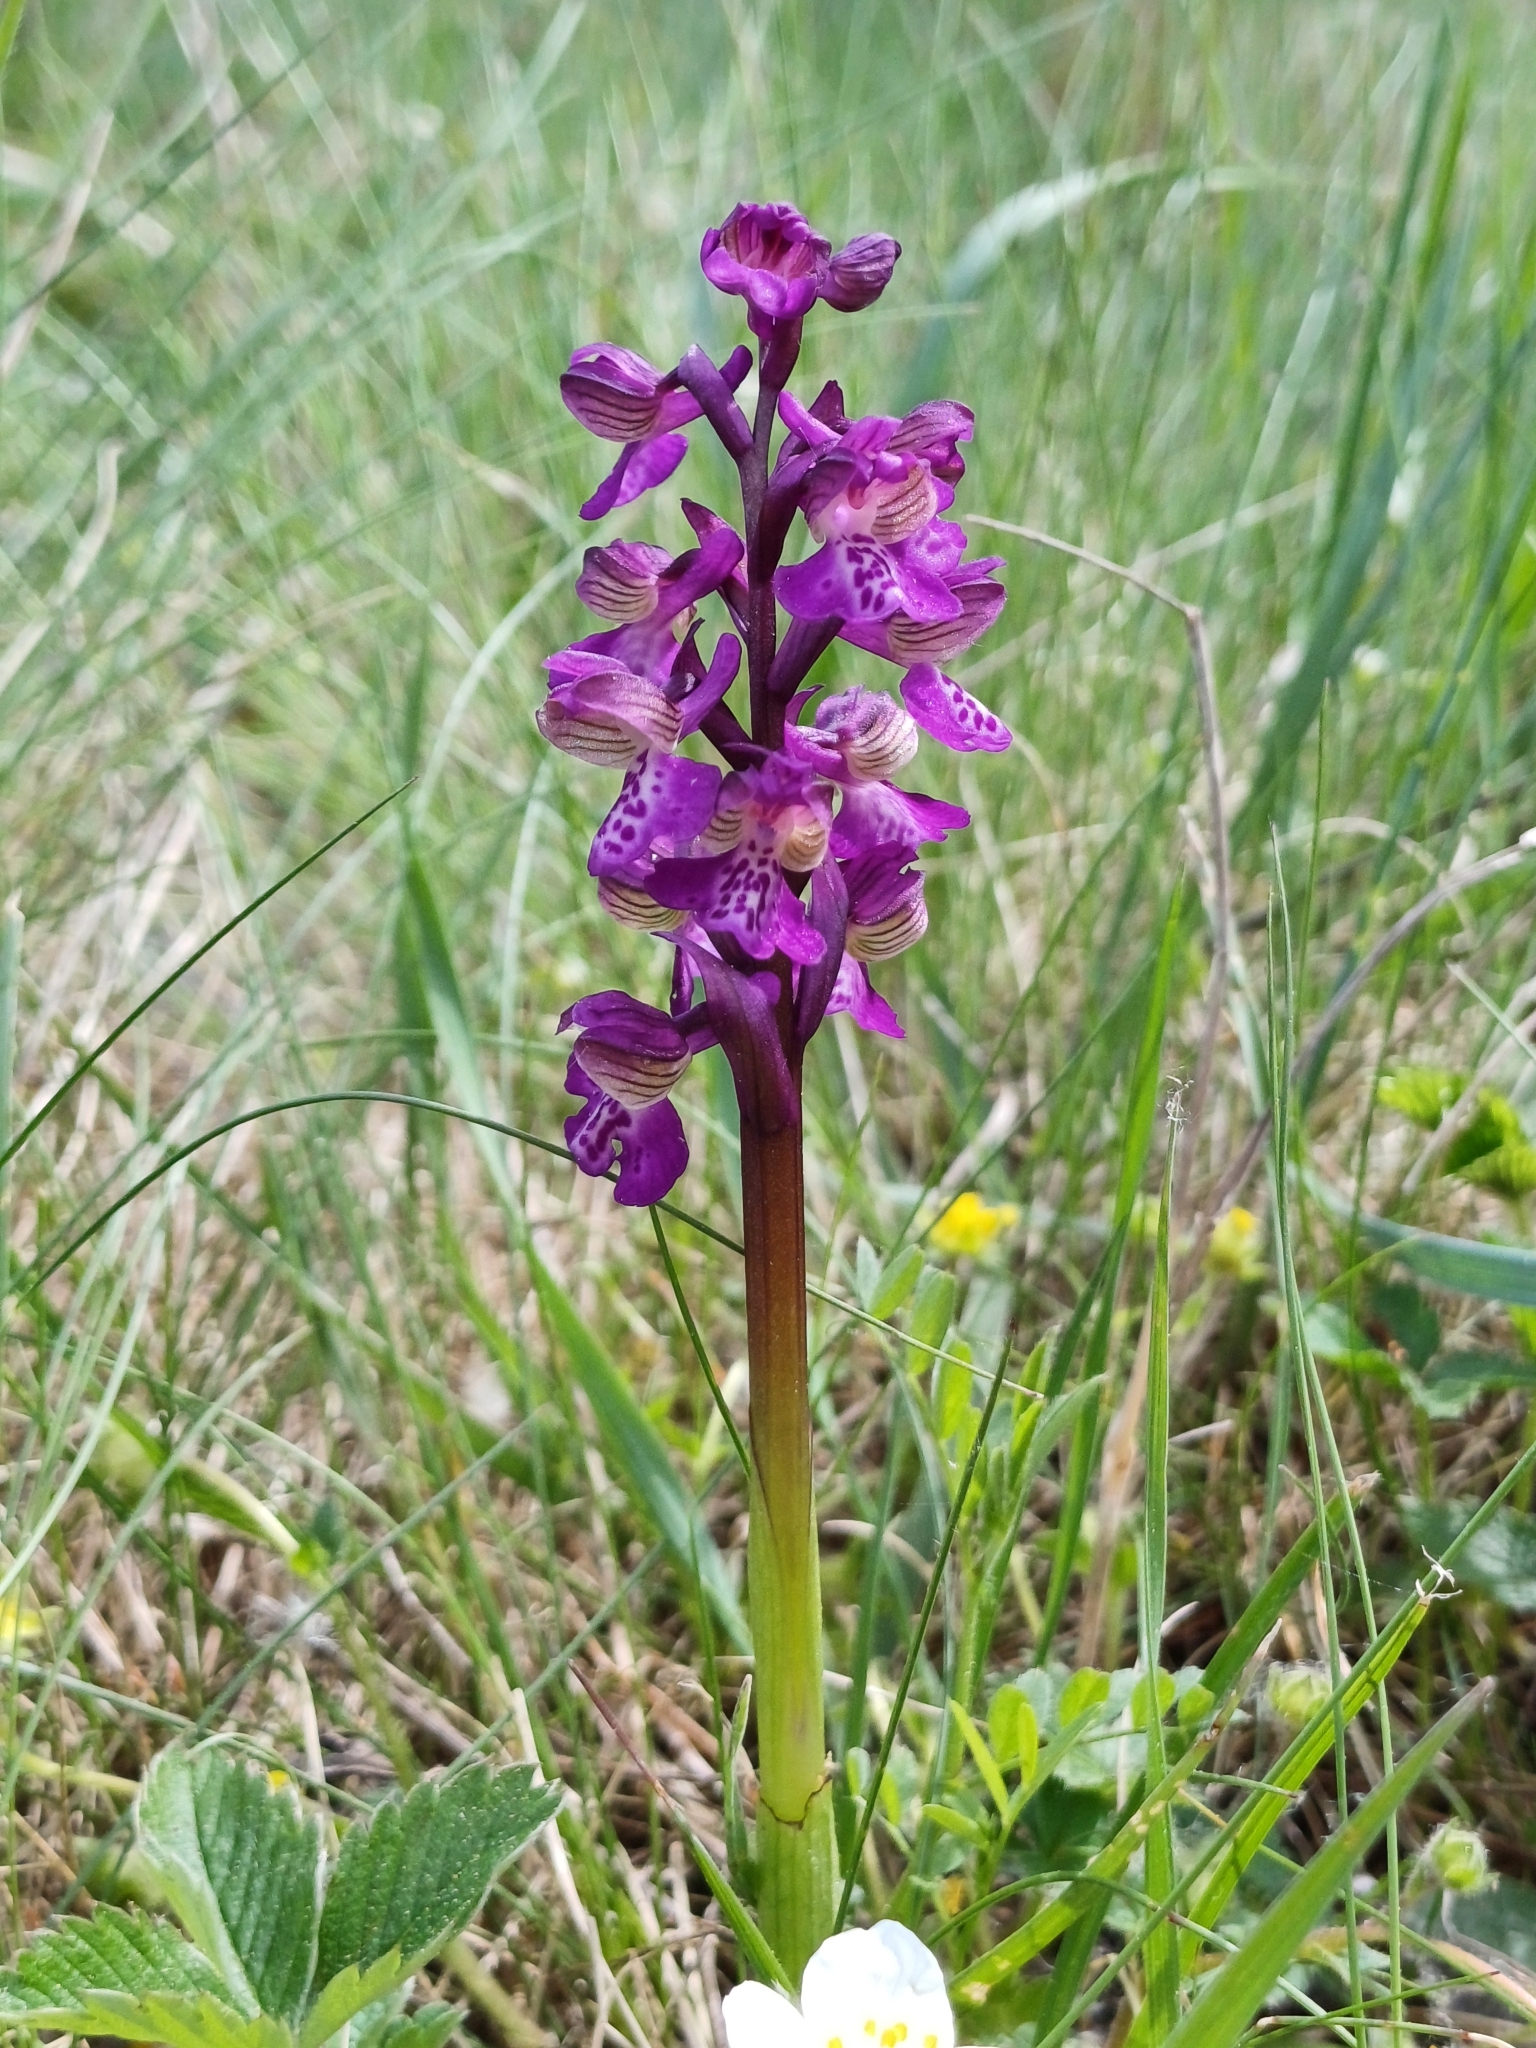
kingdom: Plantae
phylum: Tracheophyta
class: Liliopsida
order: Asparagales
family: Orchidaceae
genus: Anacamptis
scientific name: Anacamptis morio
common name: Green-winged orchid
